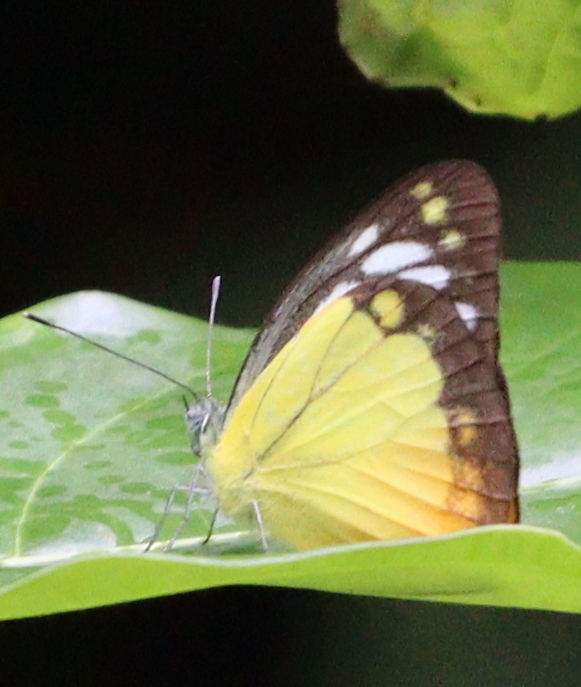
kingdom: Animalia
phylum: Arthropoda
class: Insecta
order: Lepidoptera
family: Pieridae
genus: Cepora
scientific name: Cepora iudith
